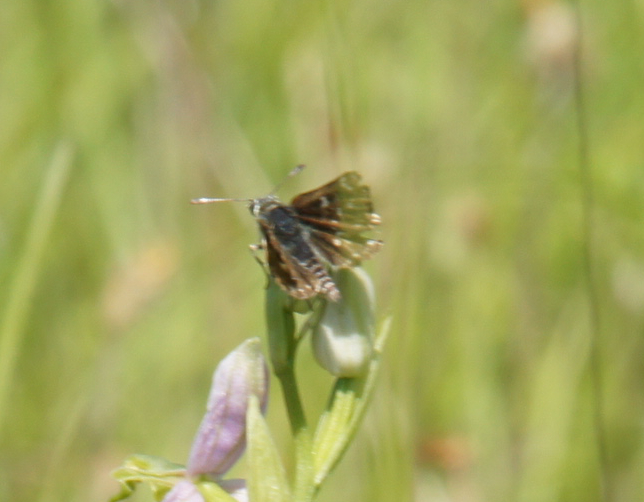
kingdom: Animalia
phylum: Arthropoda
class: Insecta
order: Lepidoptera
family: Hesperiidae
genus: Spialia
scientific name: Spialia sertorius
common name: Red underwing skipper
